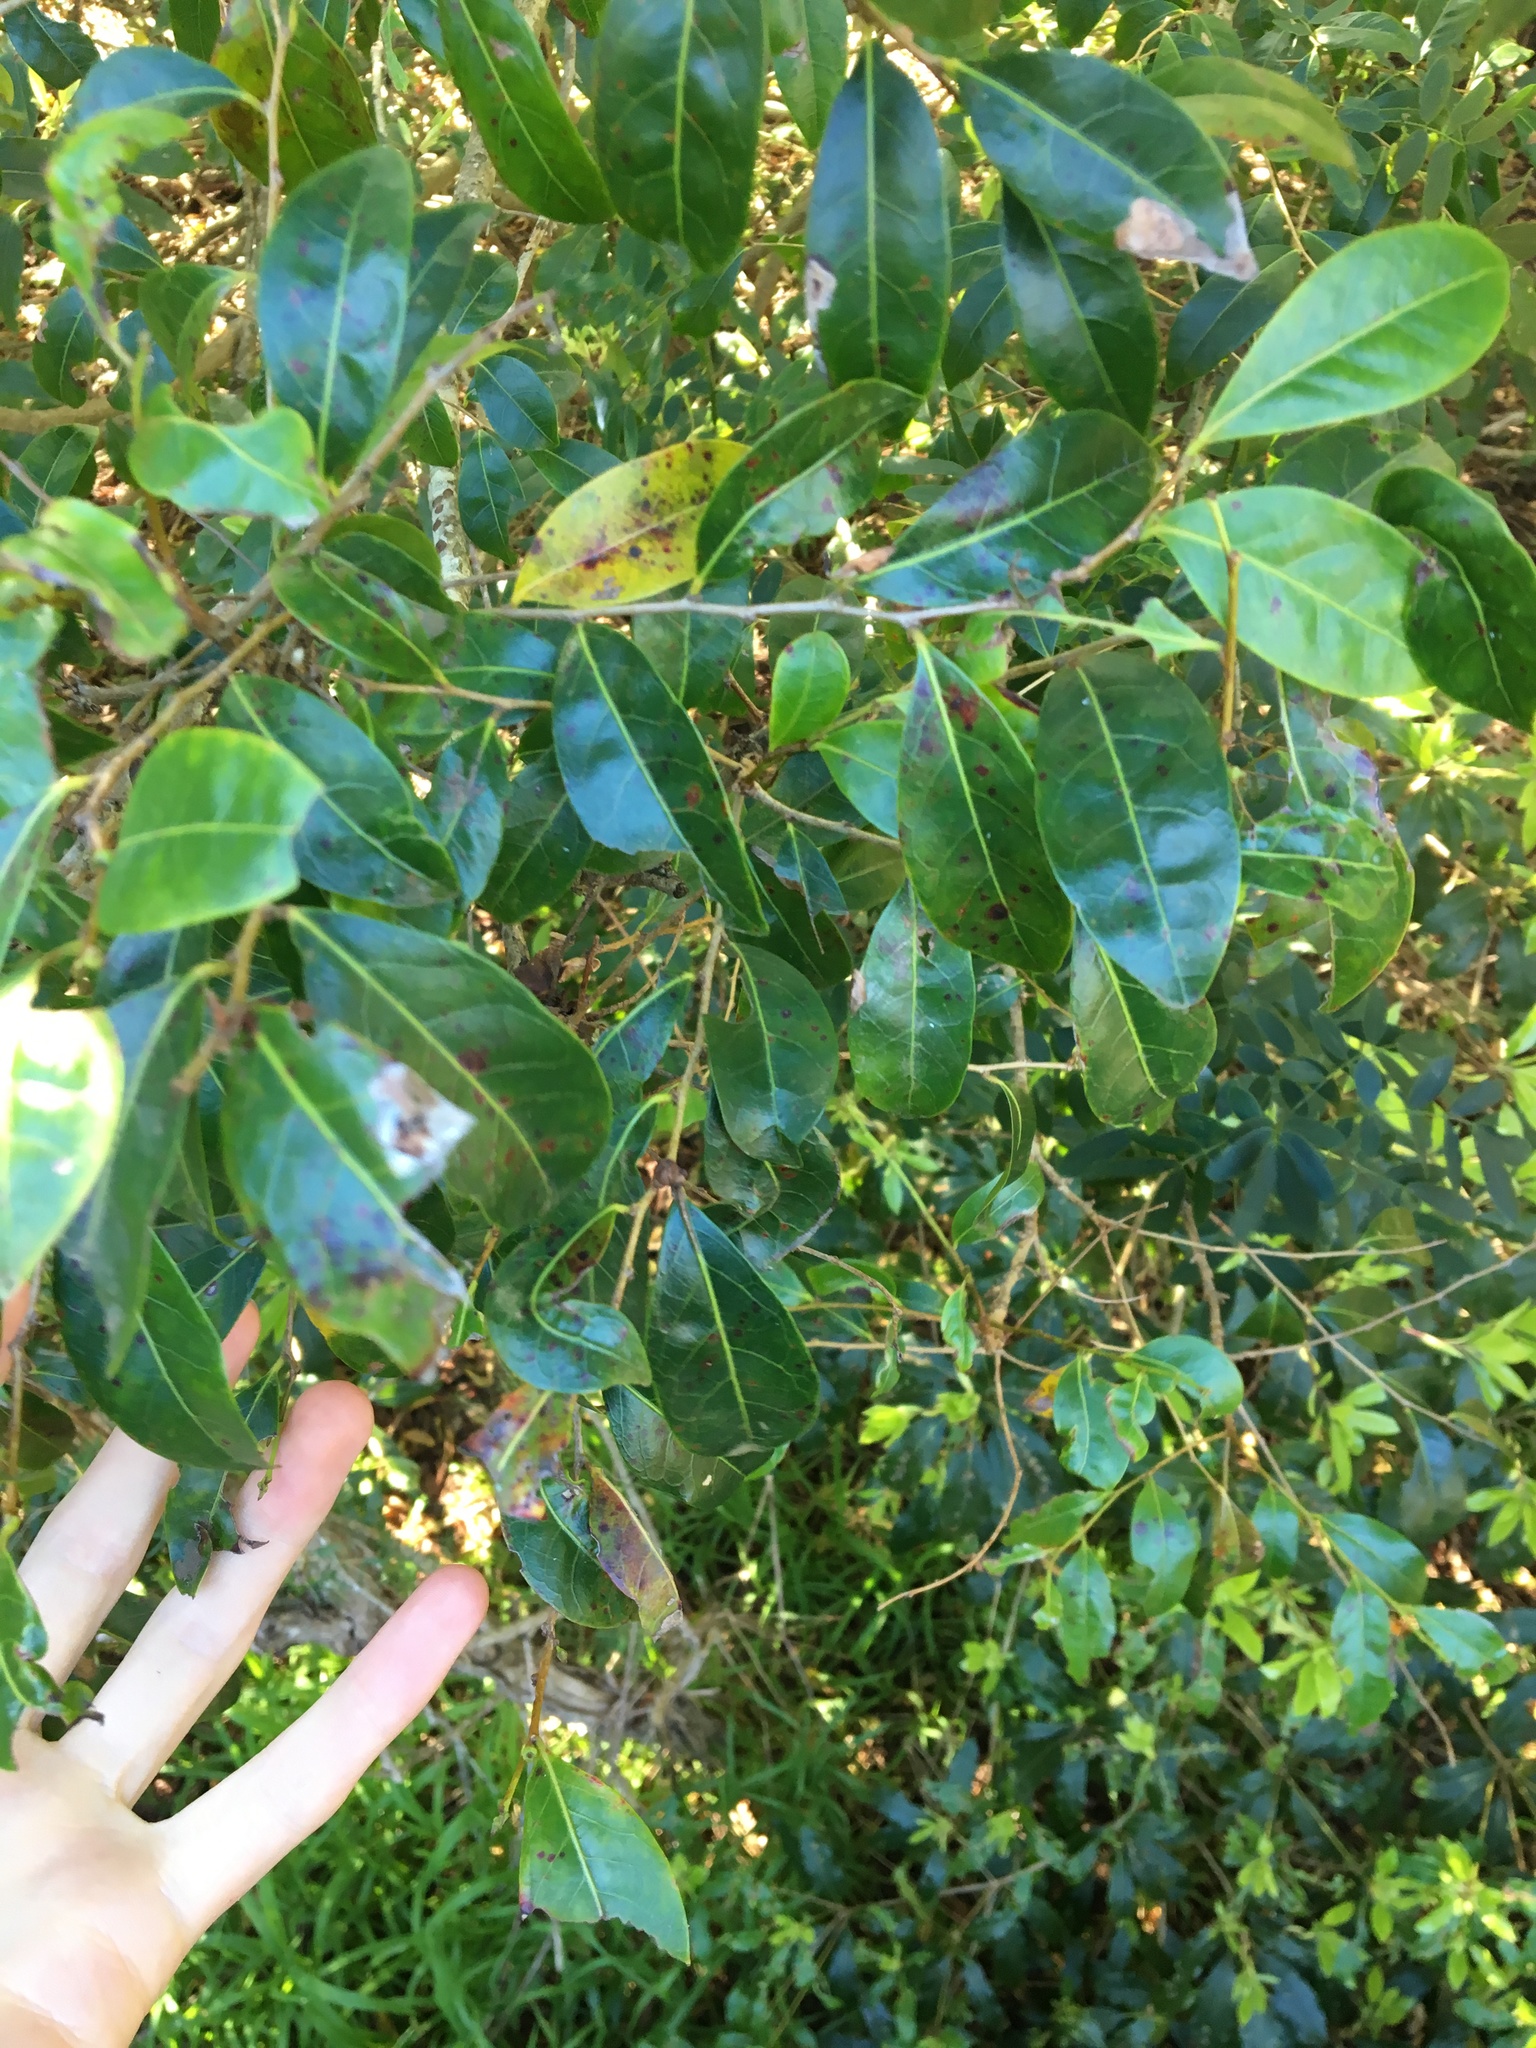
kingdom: Plantae
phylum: Tracheophyta
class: Magnoliopsida
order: Malpighiales
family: Phyllanthaceae
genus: Glochidion
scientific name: Glochidion ferdinandi
